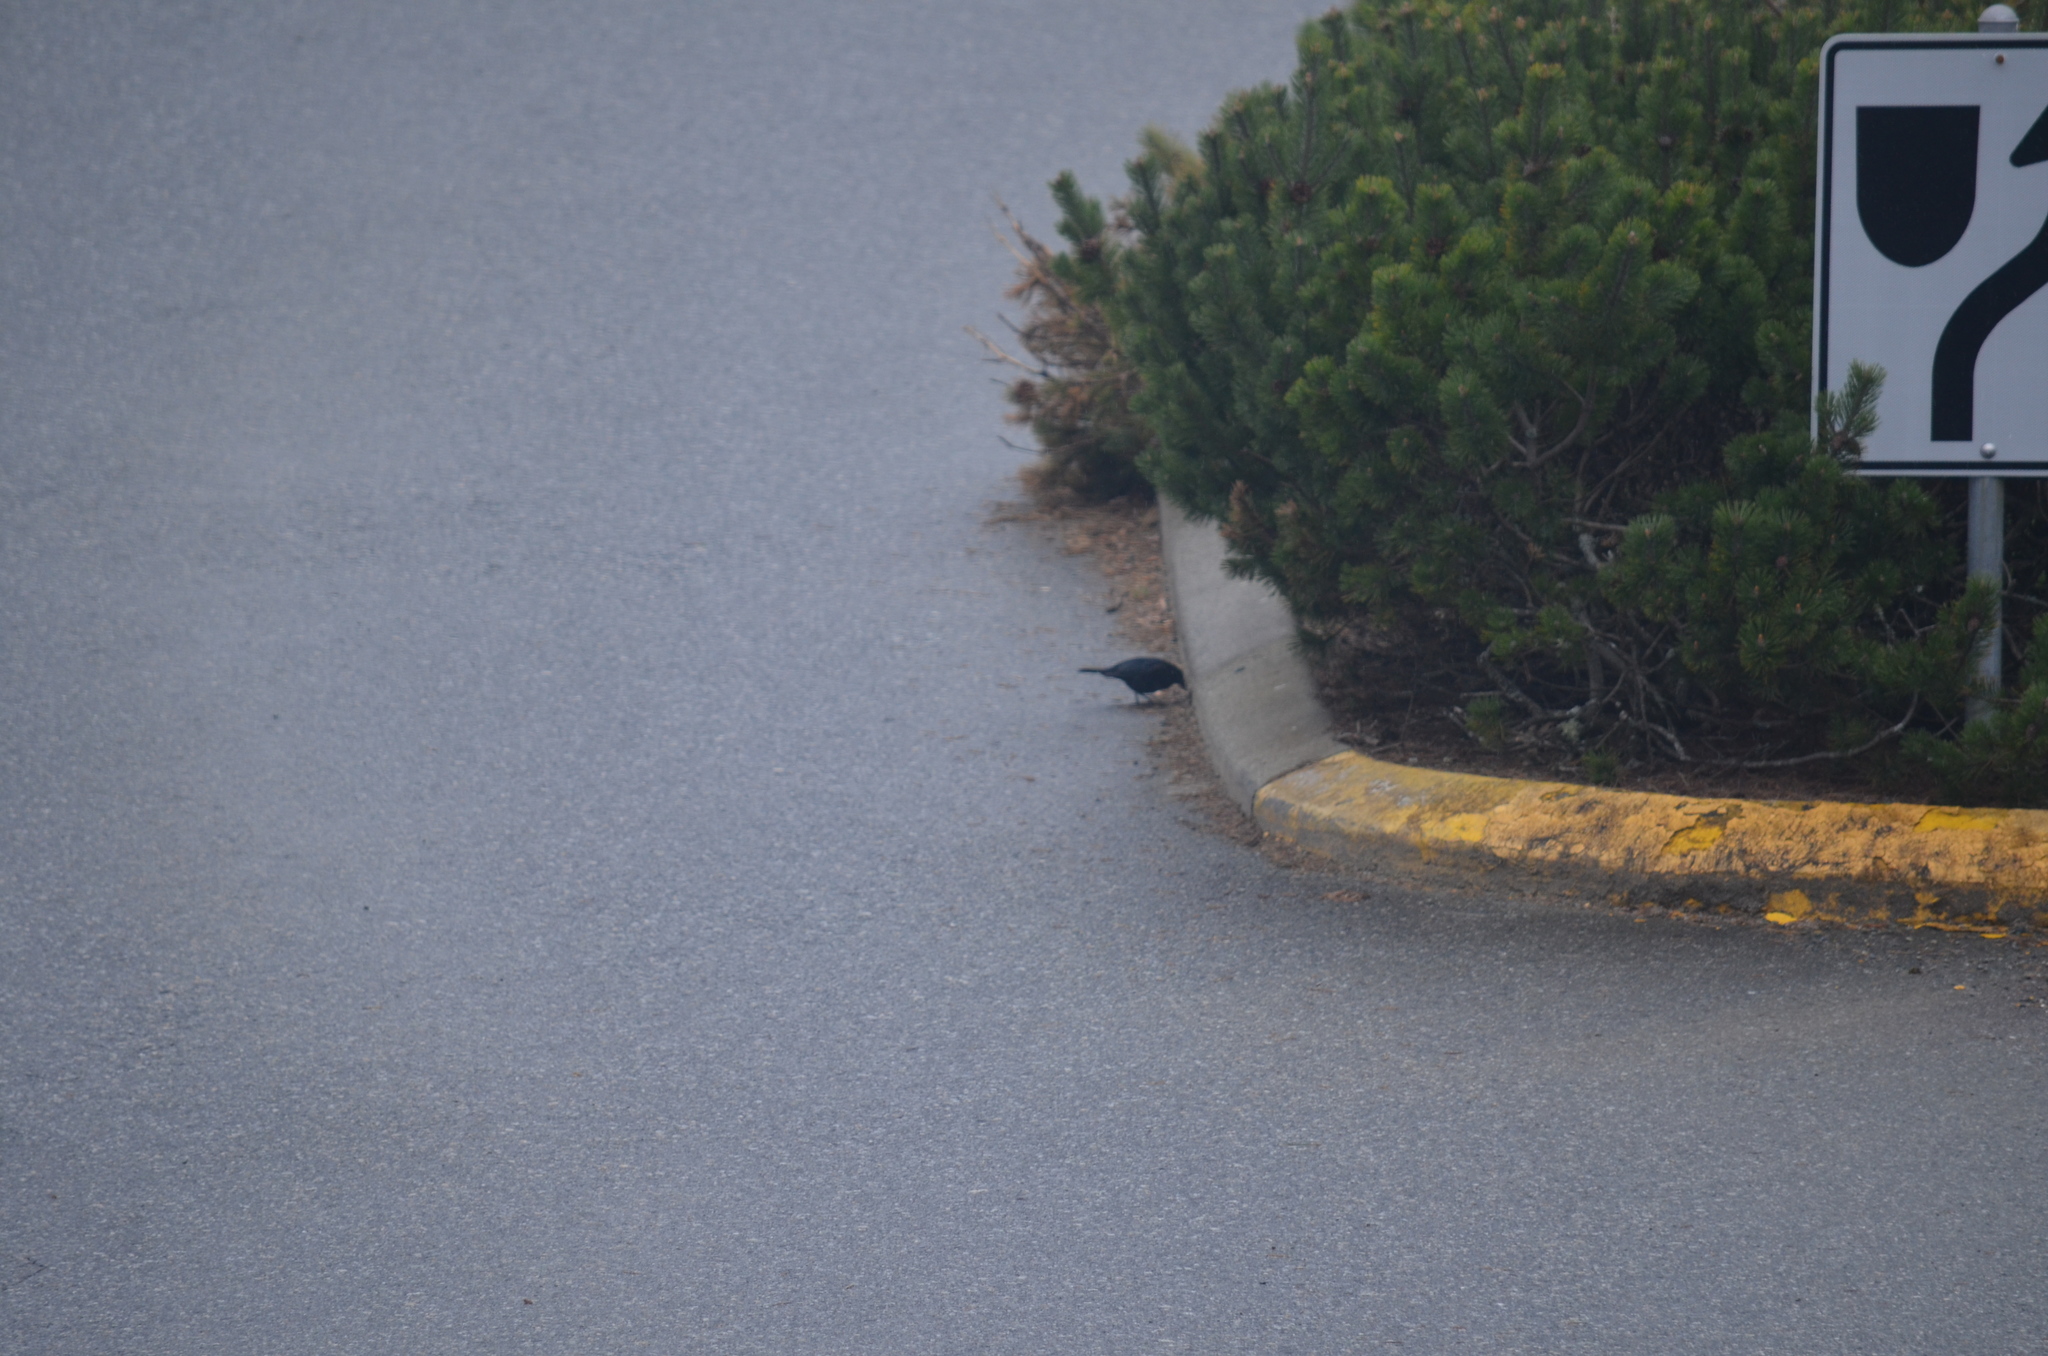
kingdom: Animalia
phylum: Chordata
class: Aves
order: Passeriformes
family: Icteridae
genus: Euphagus
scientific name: Euphagus cyanocephalus
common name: Brewer's blackbird
